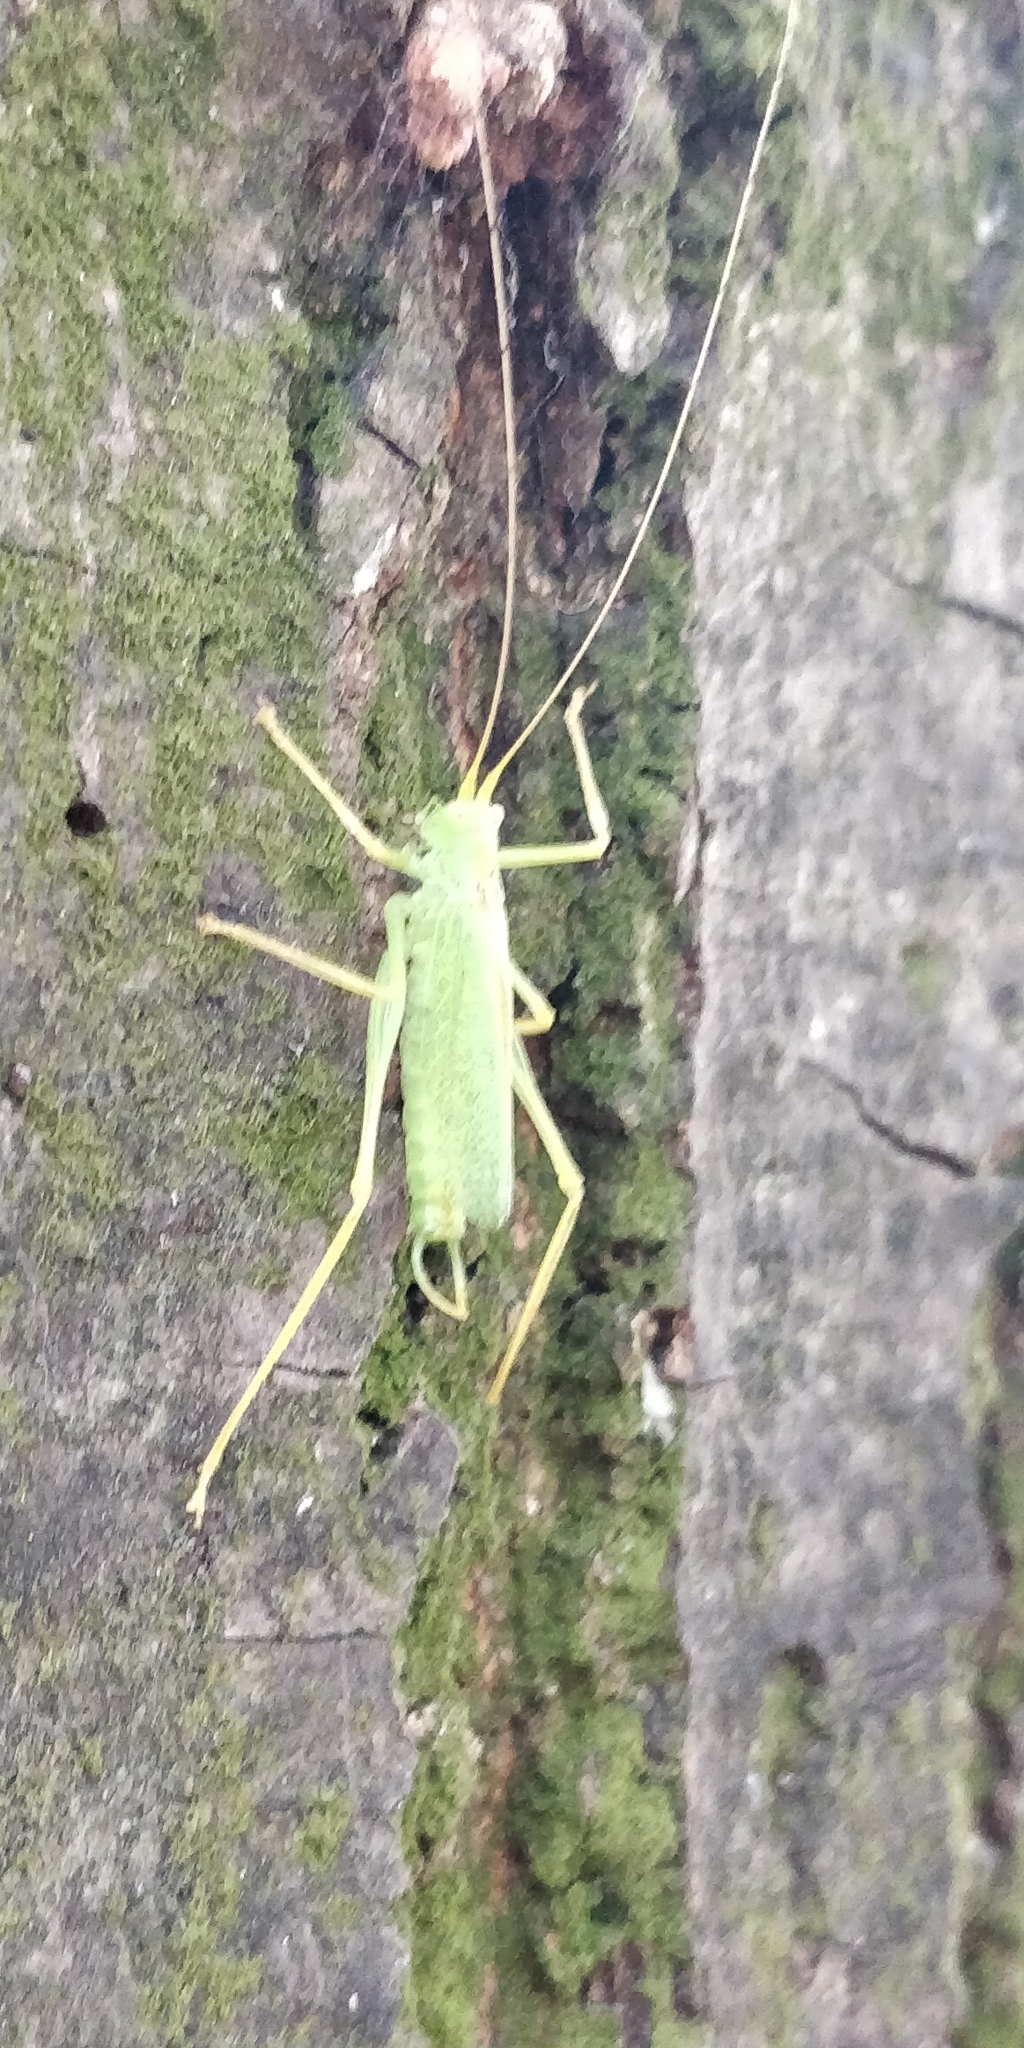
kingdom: Animalia
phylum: Arthropoda
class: Insecta
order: Orthoptera
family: Tettigoniidae
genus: Meconema
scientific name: Meconema thalassinum
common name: Oak bush-cricket
